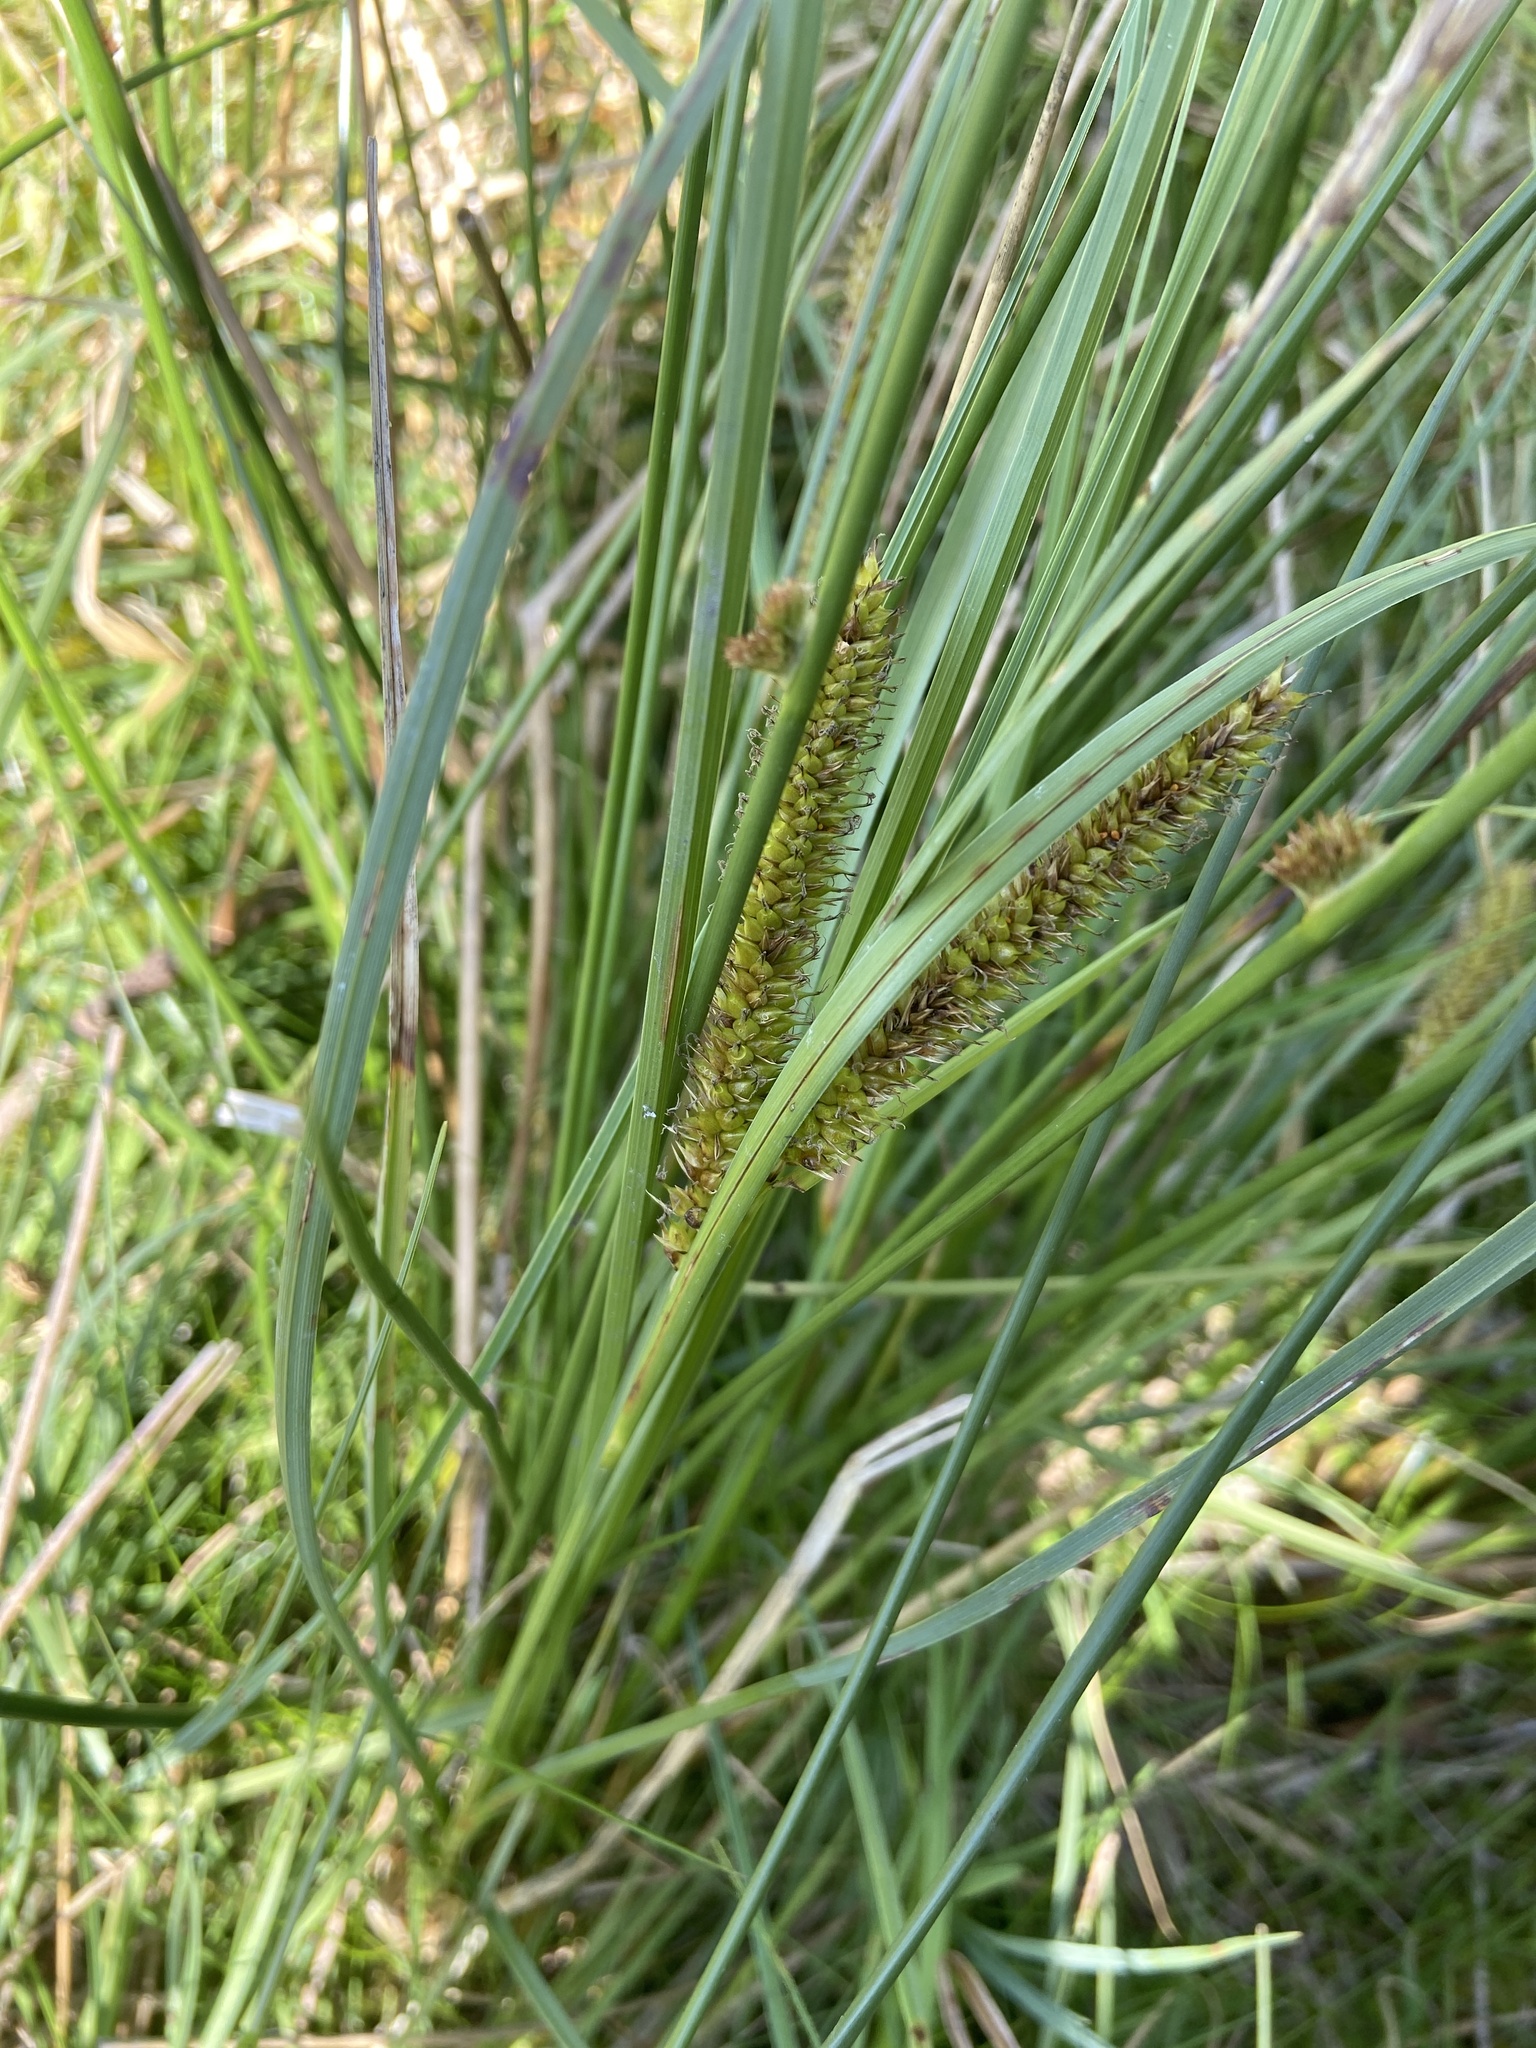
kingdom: Plantae
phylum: Tracheophyta
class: Liliopsida
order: Poales
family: Cyperaceae
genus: Carex
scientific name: Carex rostrata
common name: Bottle sedge
